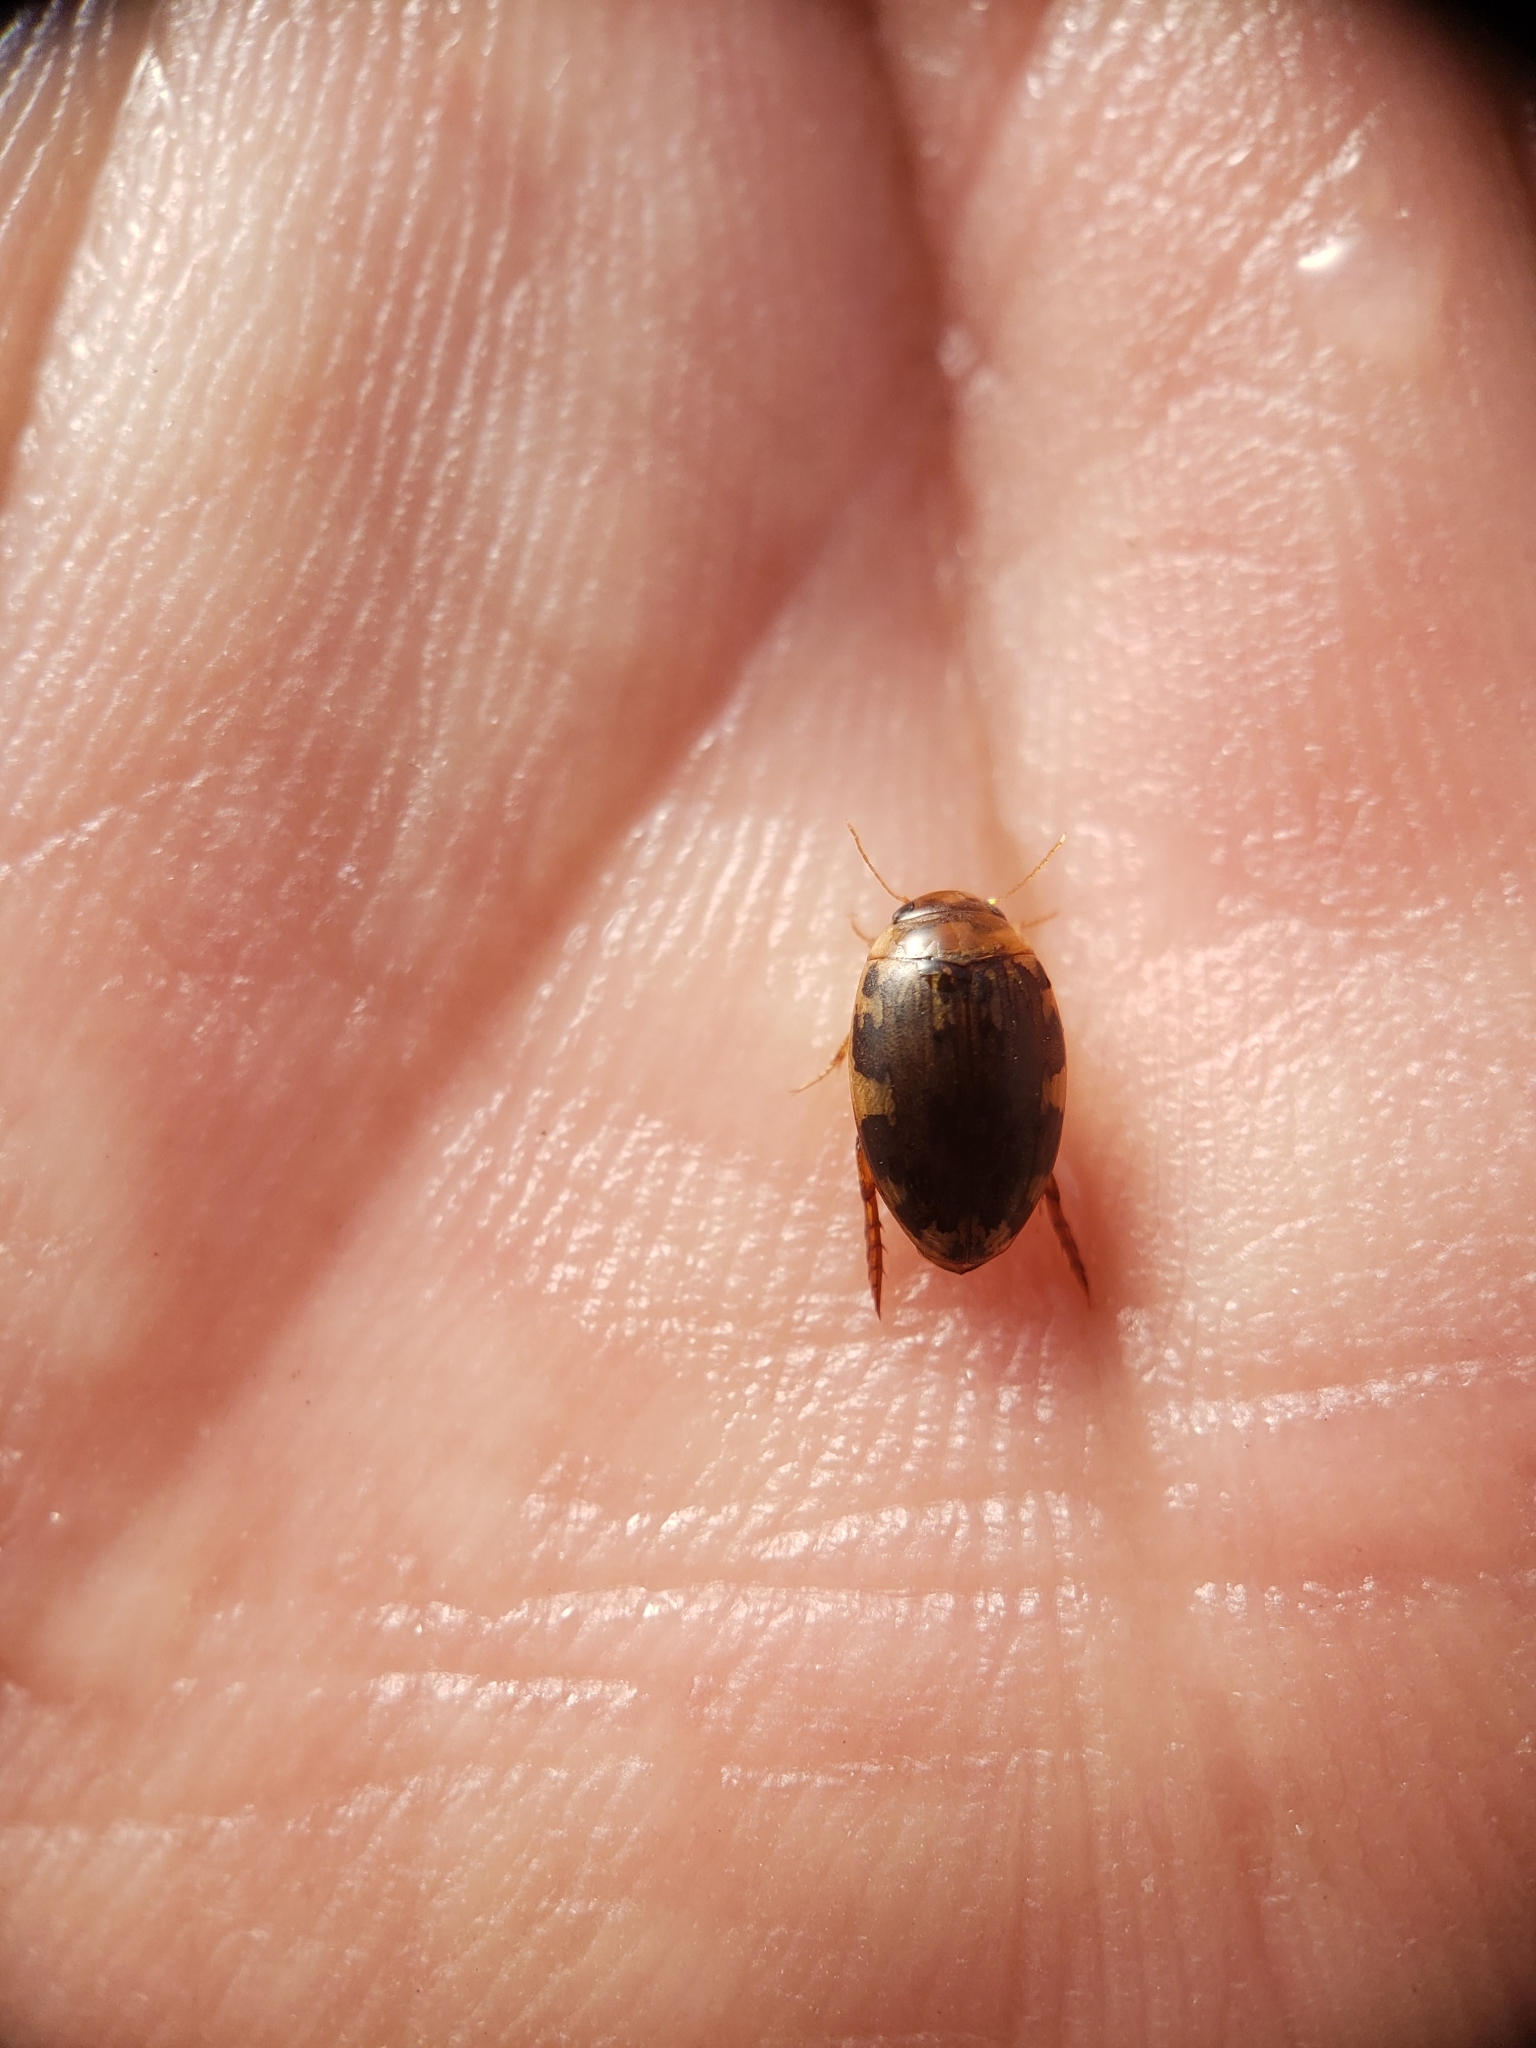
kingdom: Animalia
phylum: Arthropoda
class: Insecta
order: Coleoptera
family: Dytiscidae
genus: Laccophilus
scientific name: Laccophilus maculosus
